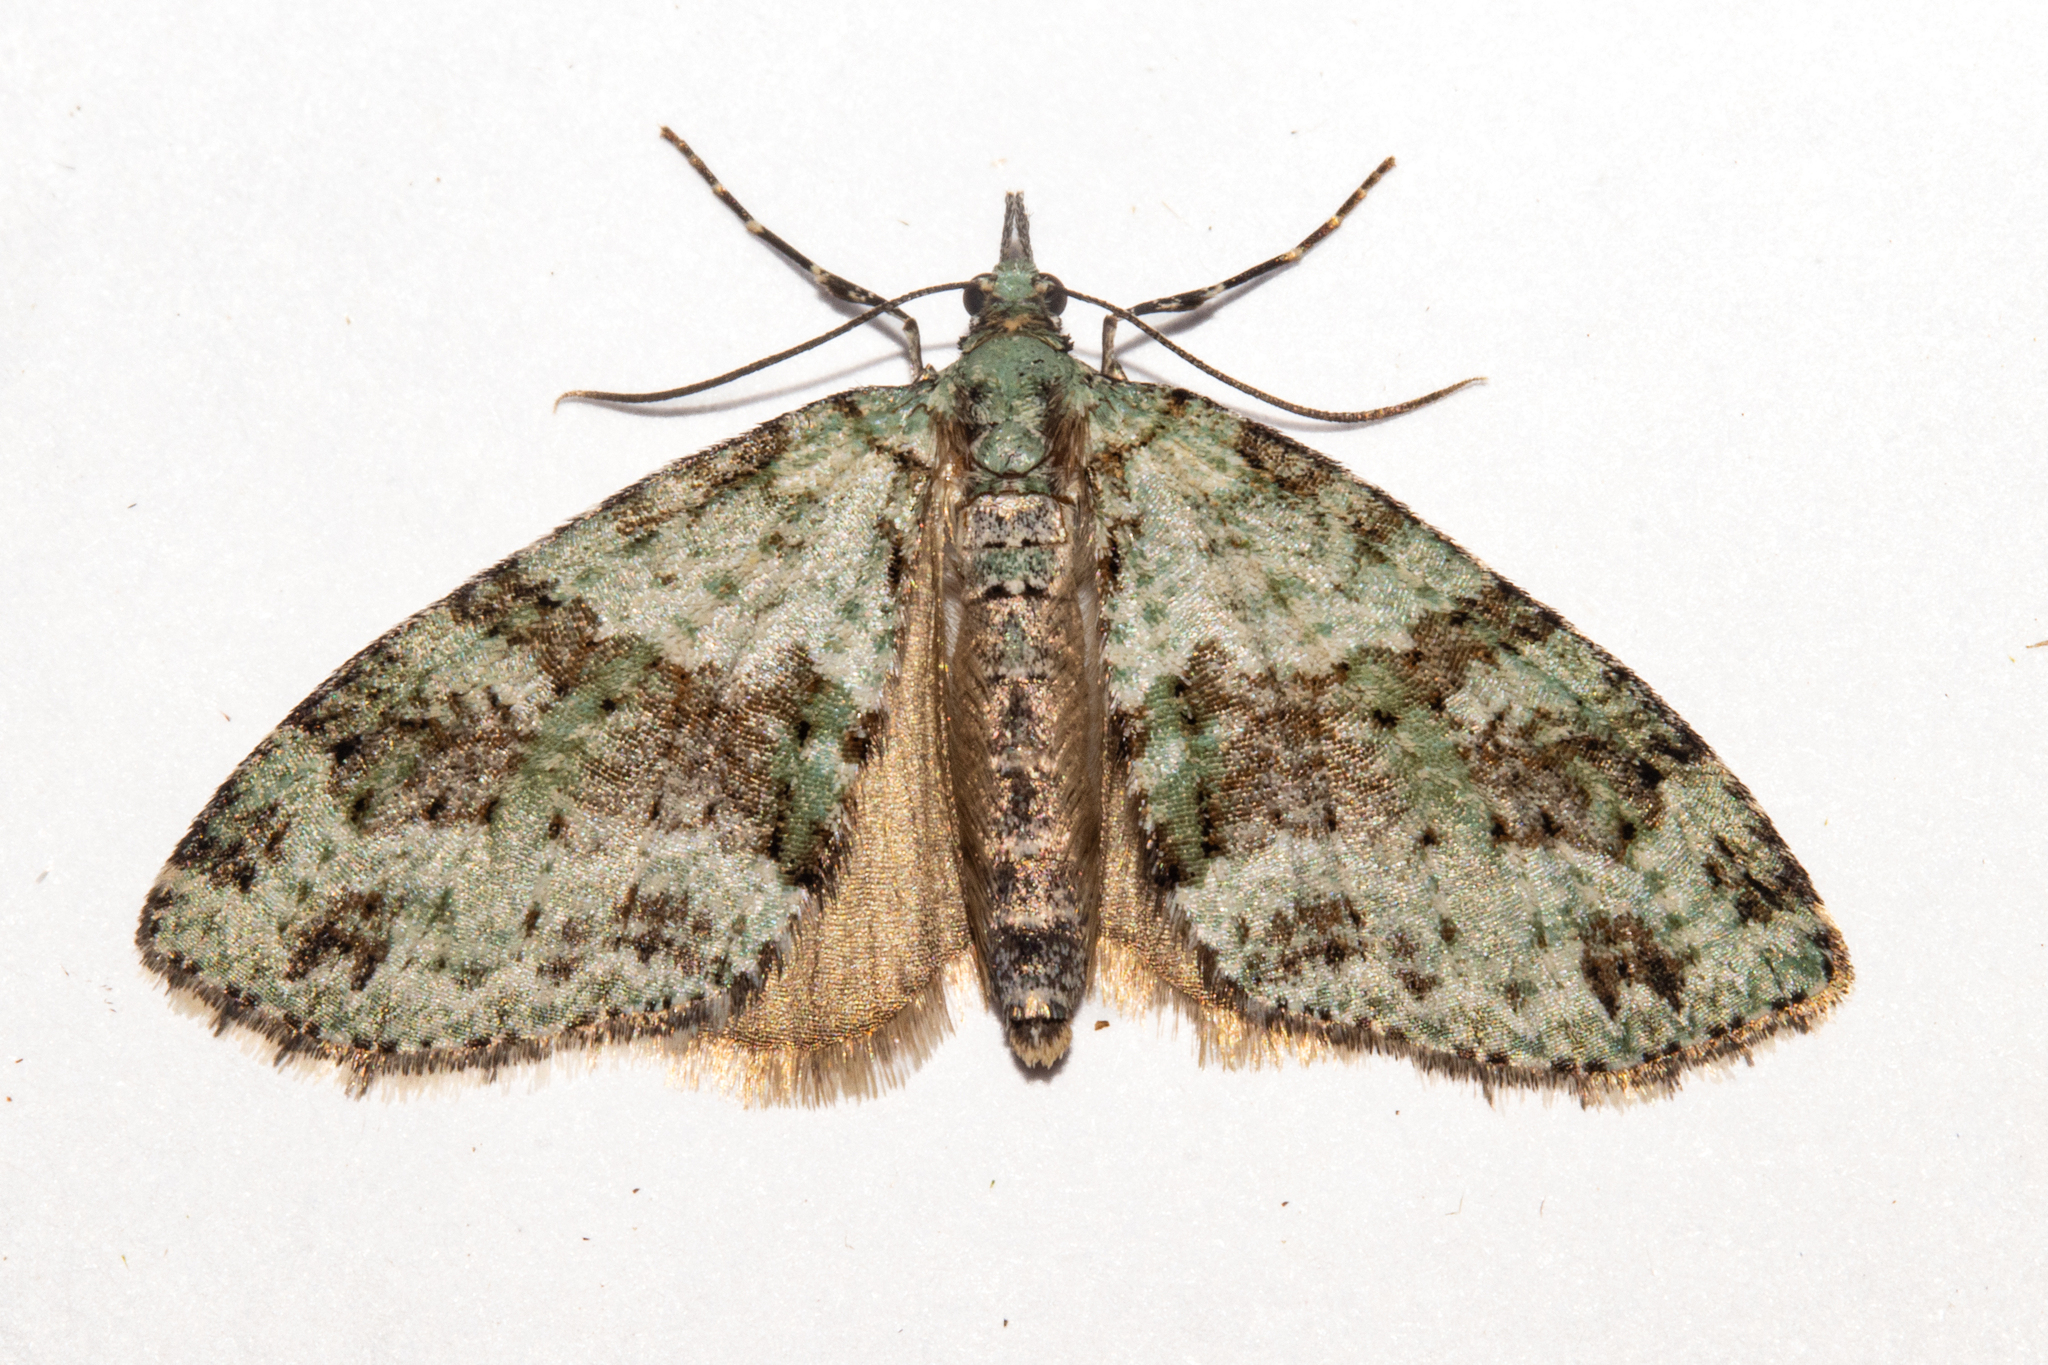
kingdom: Animalia
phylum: Arthropoda
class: Insecta
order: Lepidoptera
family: Geometridae
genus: Tatosoma
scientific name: Tatosoma alta
